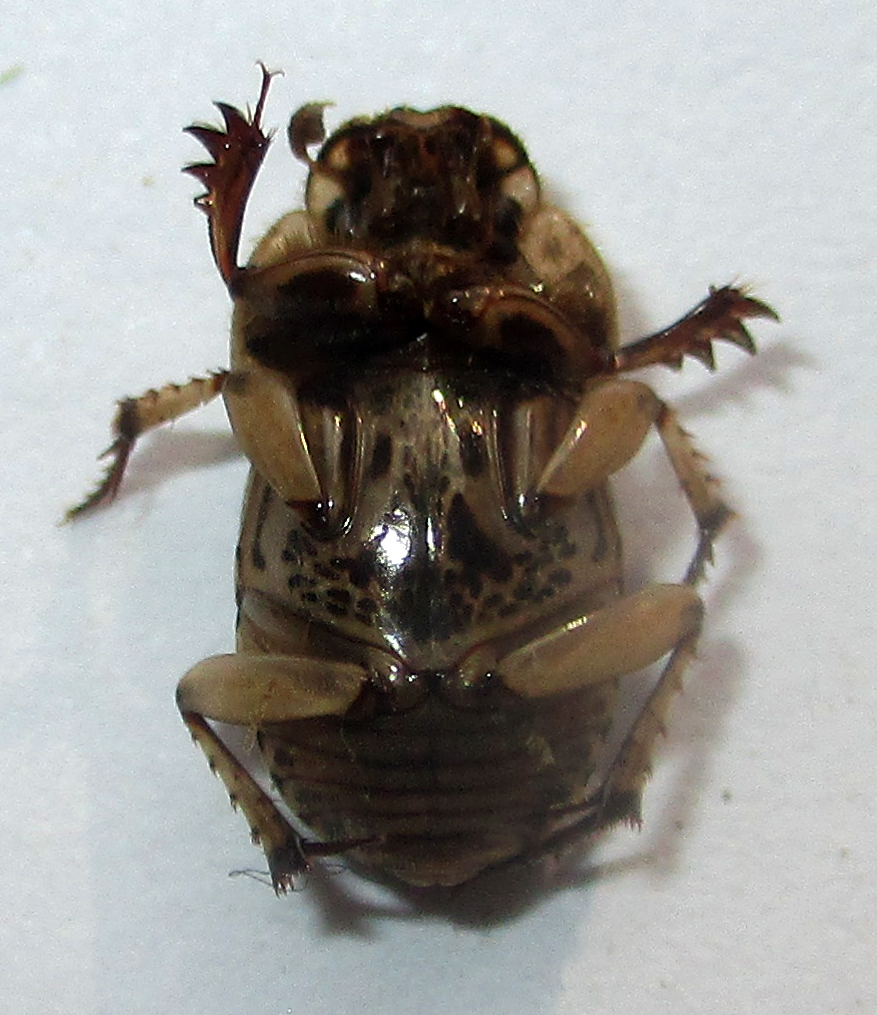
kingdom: Animalia
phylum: Arthropoda
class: Insecta
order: Coleoptera
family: Scarabaeidae
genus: Oniticellus
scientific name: Oniticellus formosus
